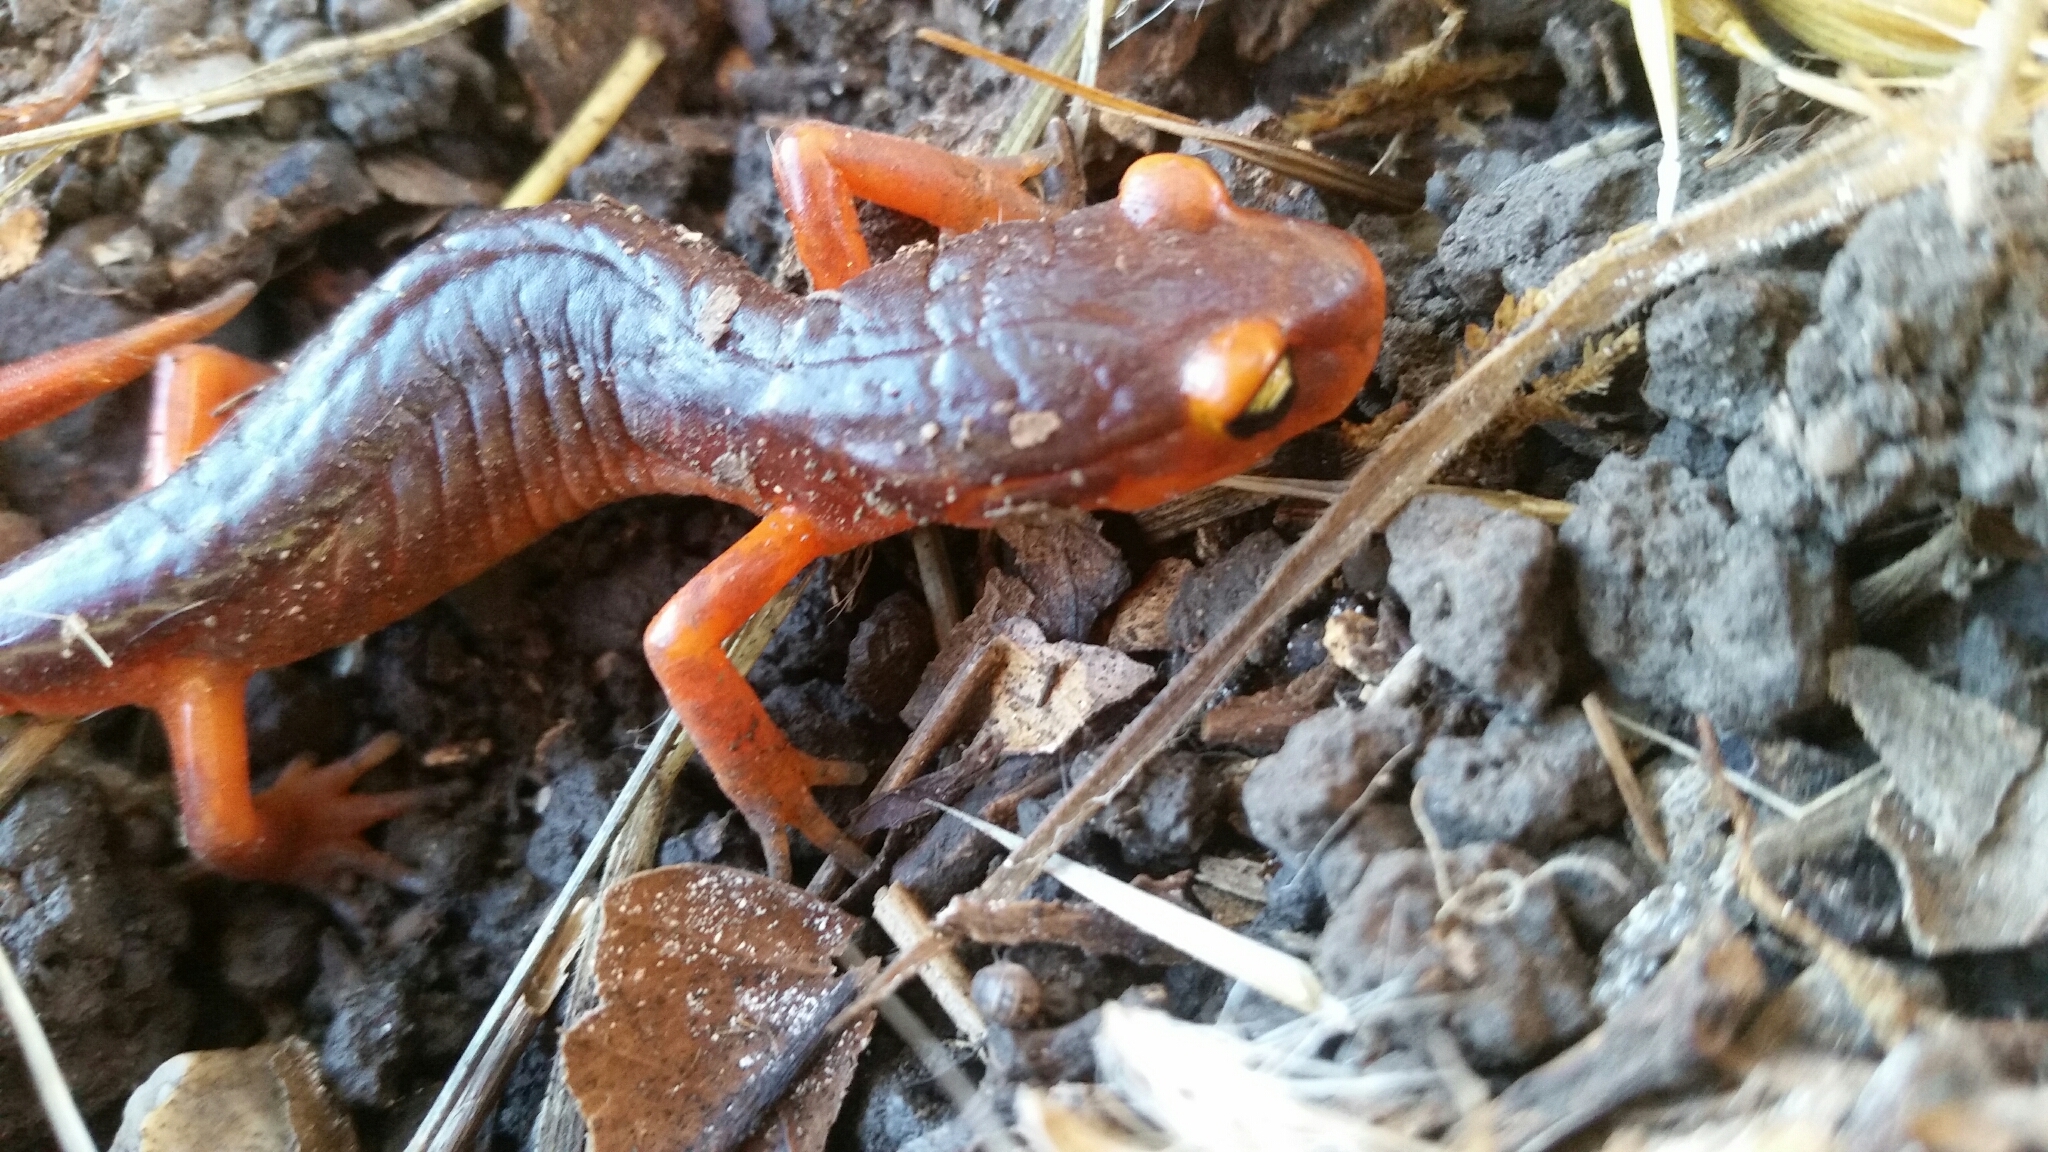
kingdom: Animalia
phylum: Chordata
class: Amphibia
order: Caudata
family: Plethodontidae
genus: Ensatina
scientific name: Ensatina eschscholtzii
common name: Ensatina
